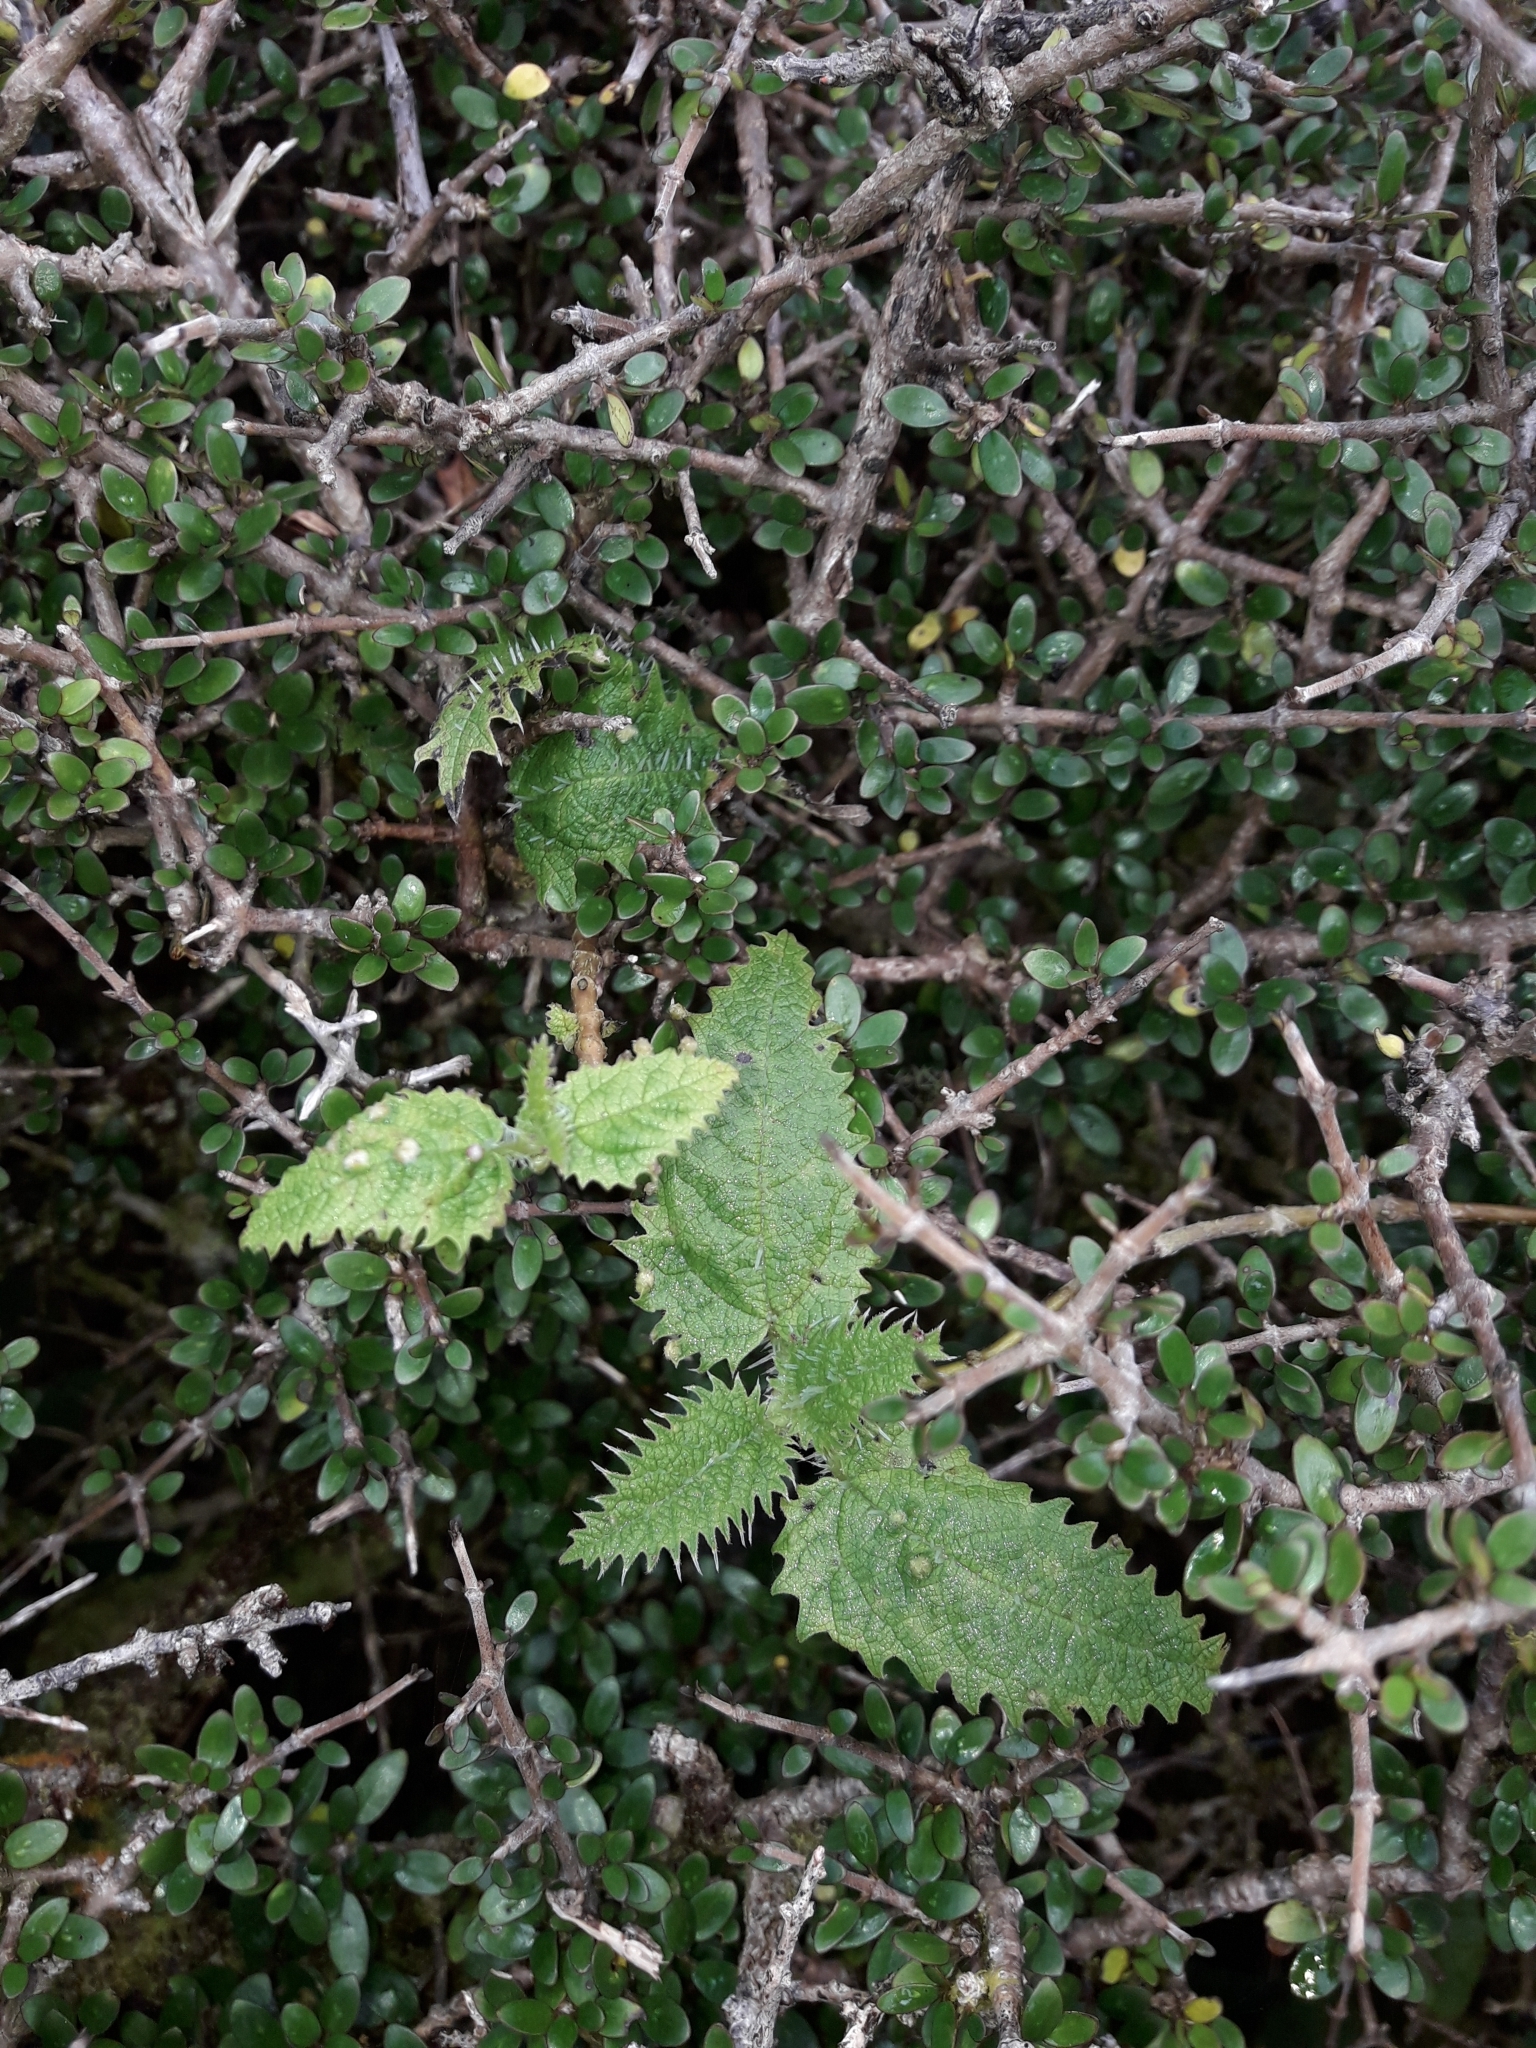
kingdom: Plantae
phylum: Tracheophyta
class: Magnoliopsida
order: Rosales
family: Urticaceae
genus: Urtica
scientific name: Urtica ferox
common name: Tree nettle
